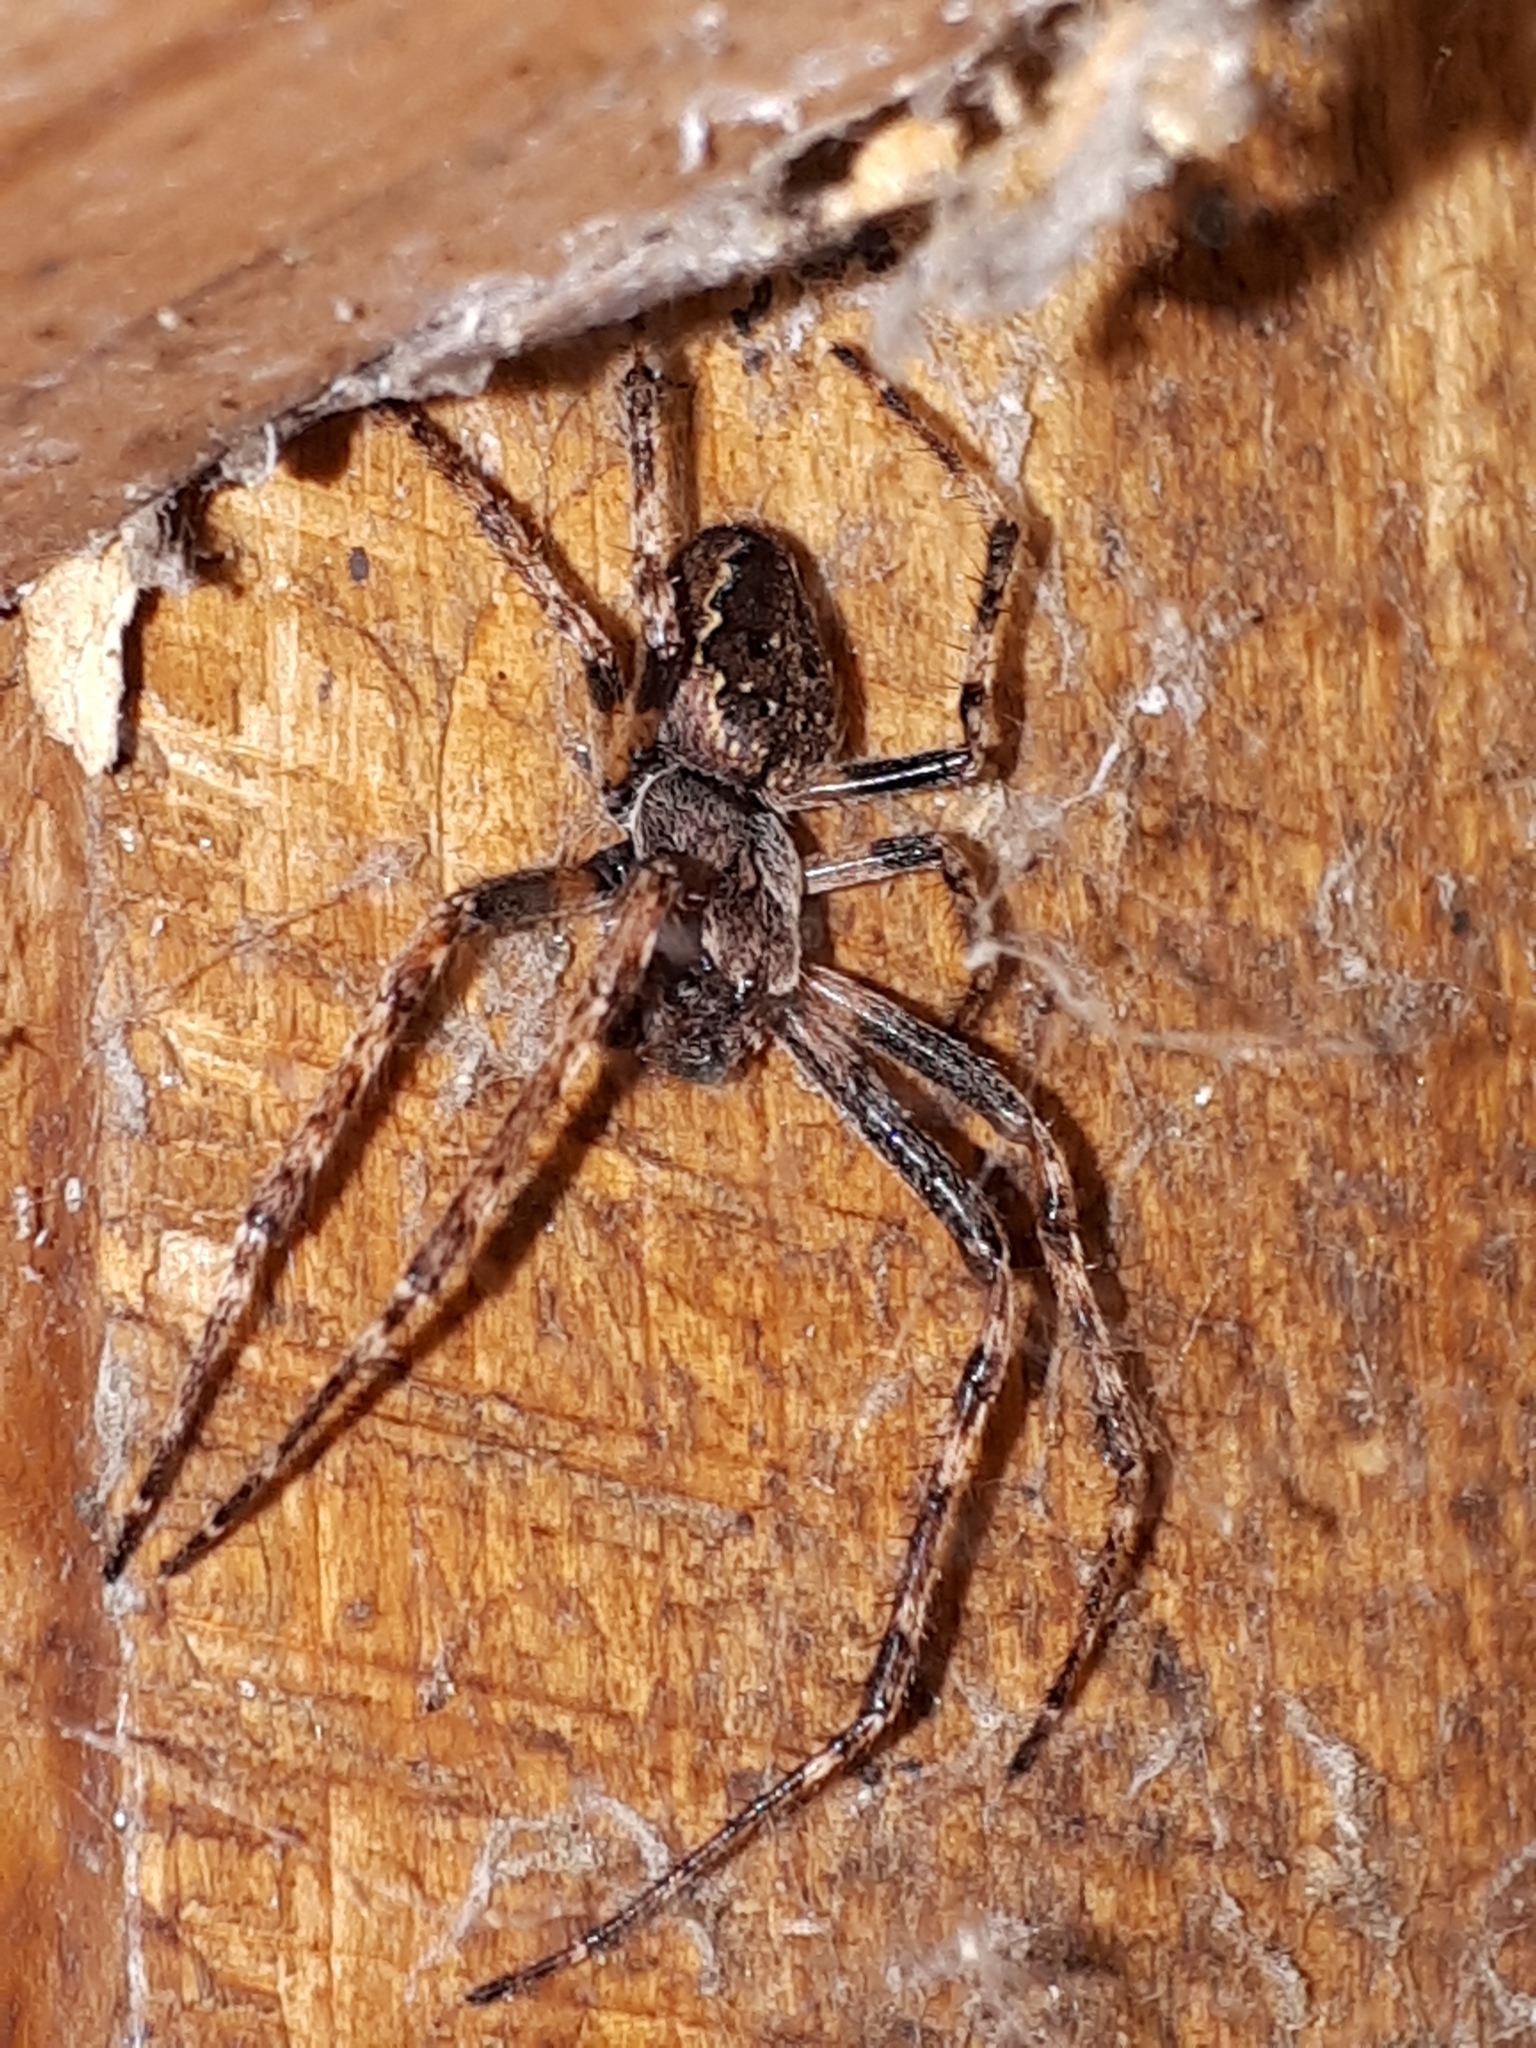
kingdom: Animalia
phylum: Arthropoda
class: Arachnida
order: Araneae
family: Araneidae
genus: Nuctenea
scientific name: Nuctenea umbratica
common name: Toad spider
